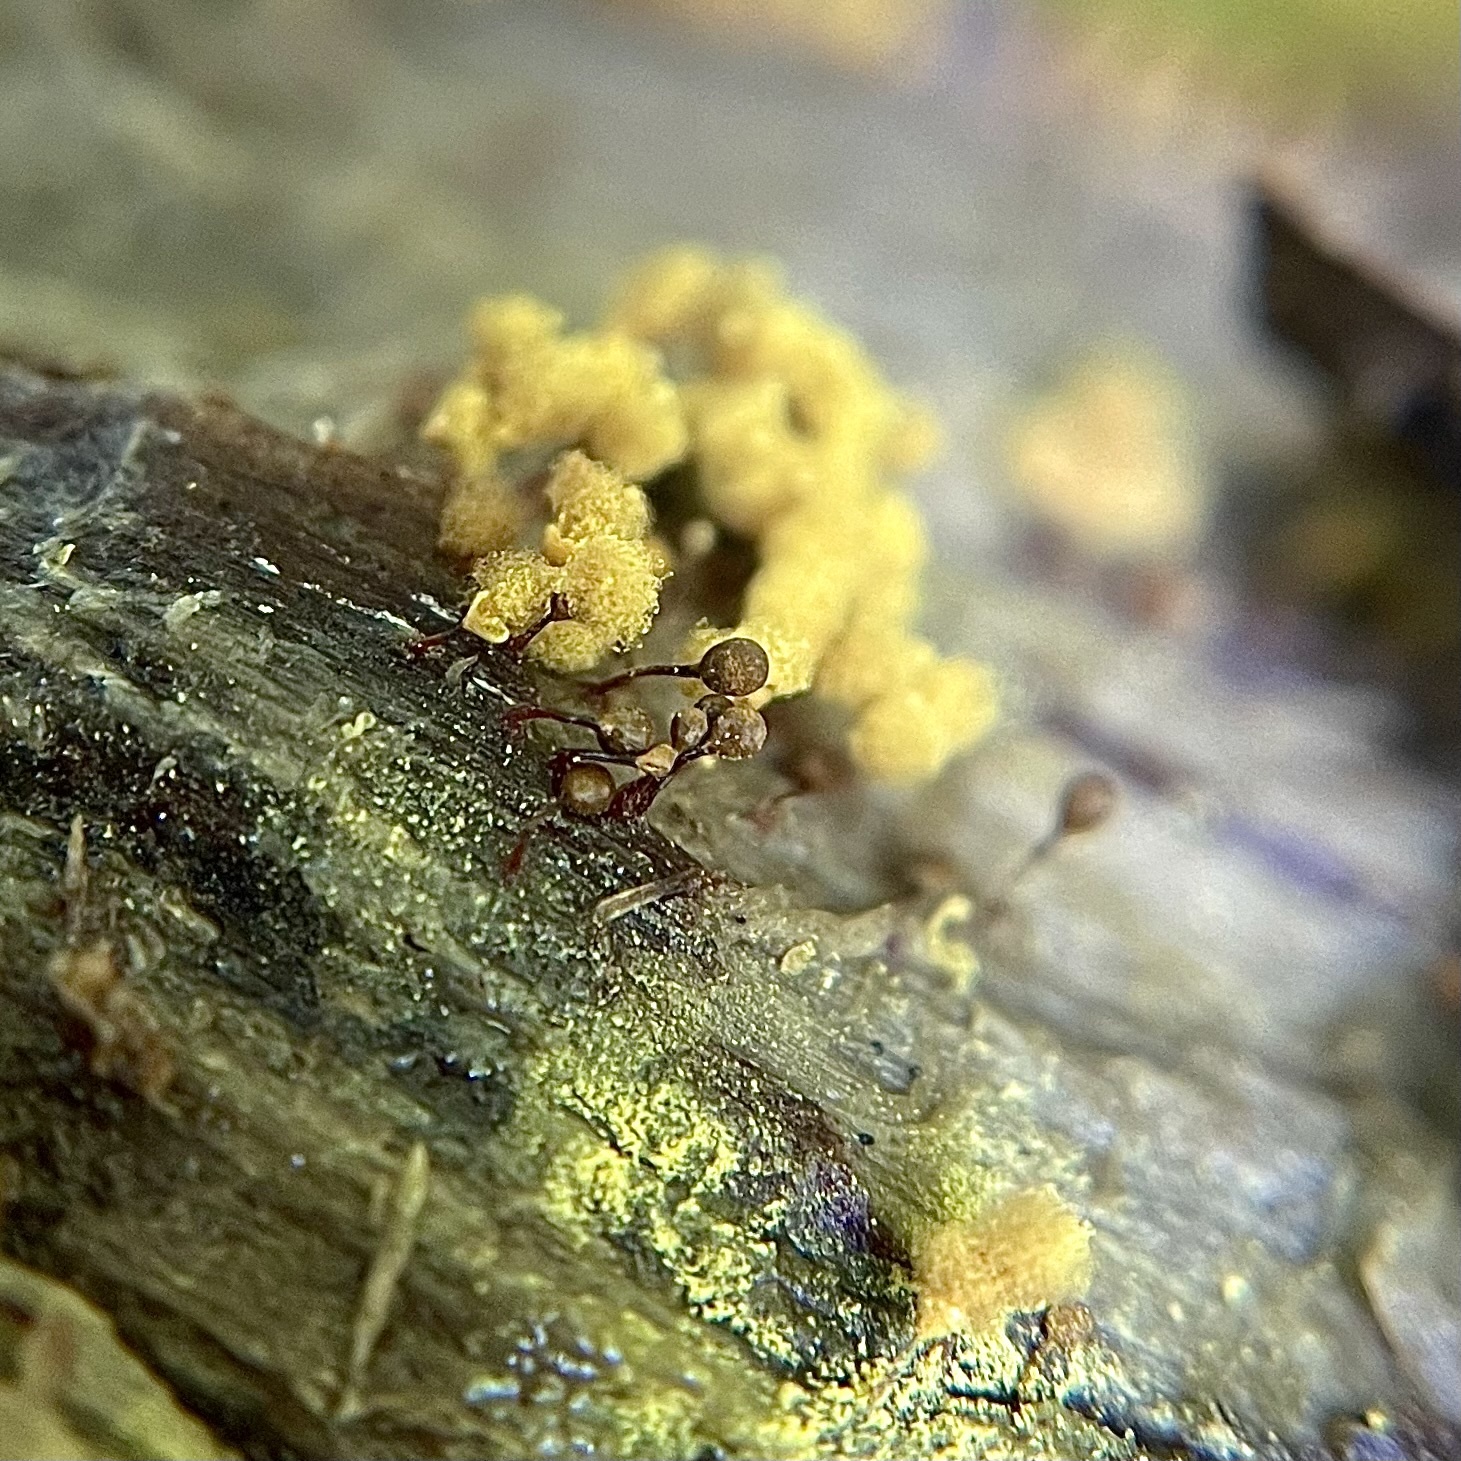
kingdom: Protozoa
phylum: Mycetozoa
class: Myxomycetes
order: Trichiales
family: Arcyriaceae
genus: Hemitrichia
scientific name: Hemitrichia calyculata
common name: Push pin slime mold
